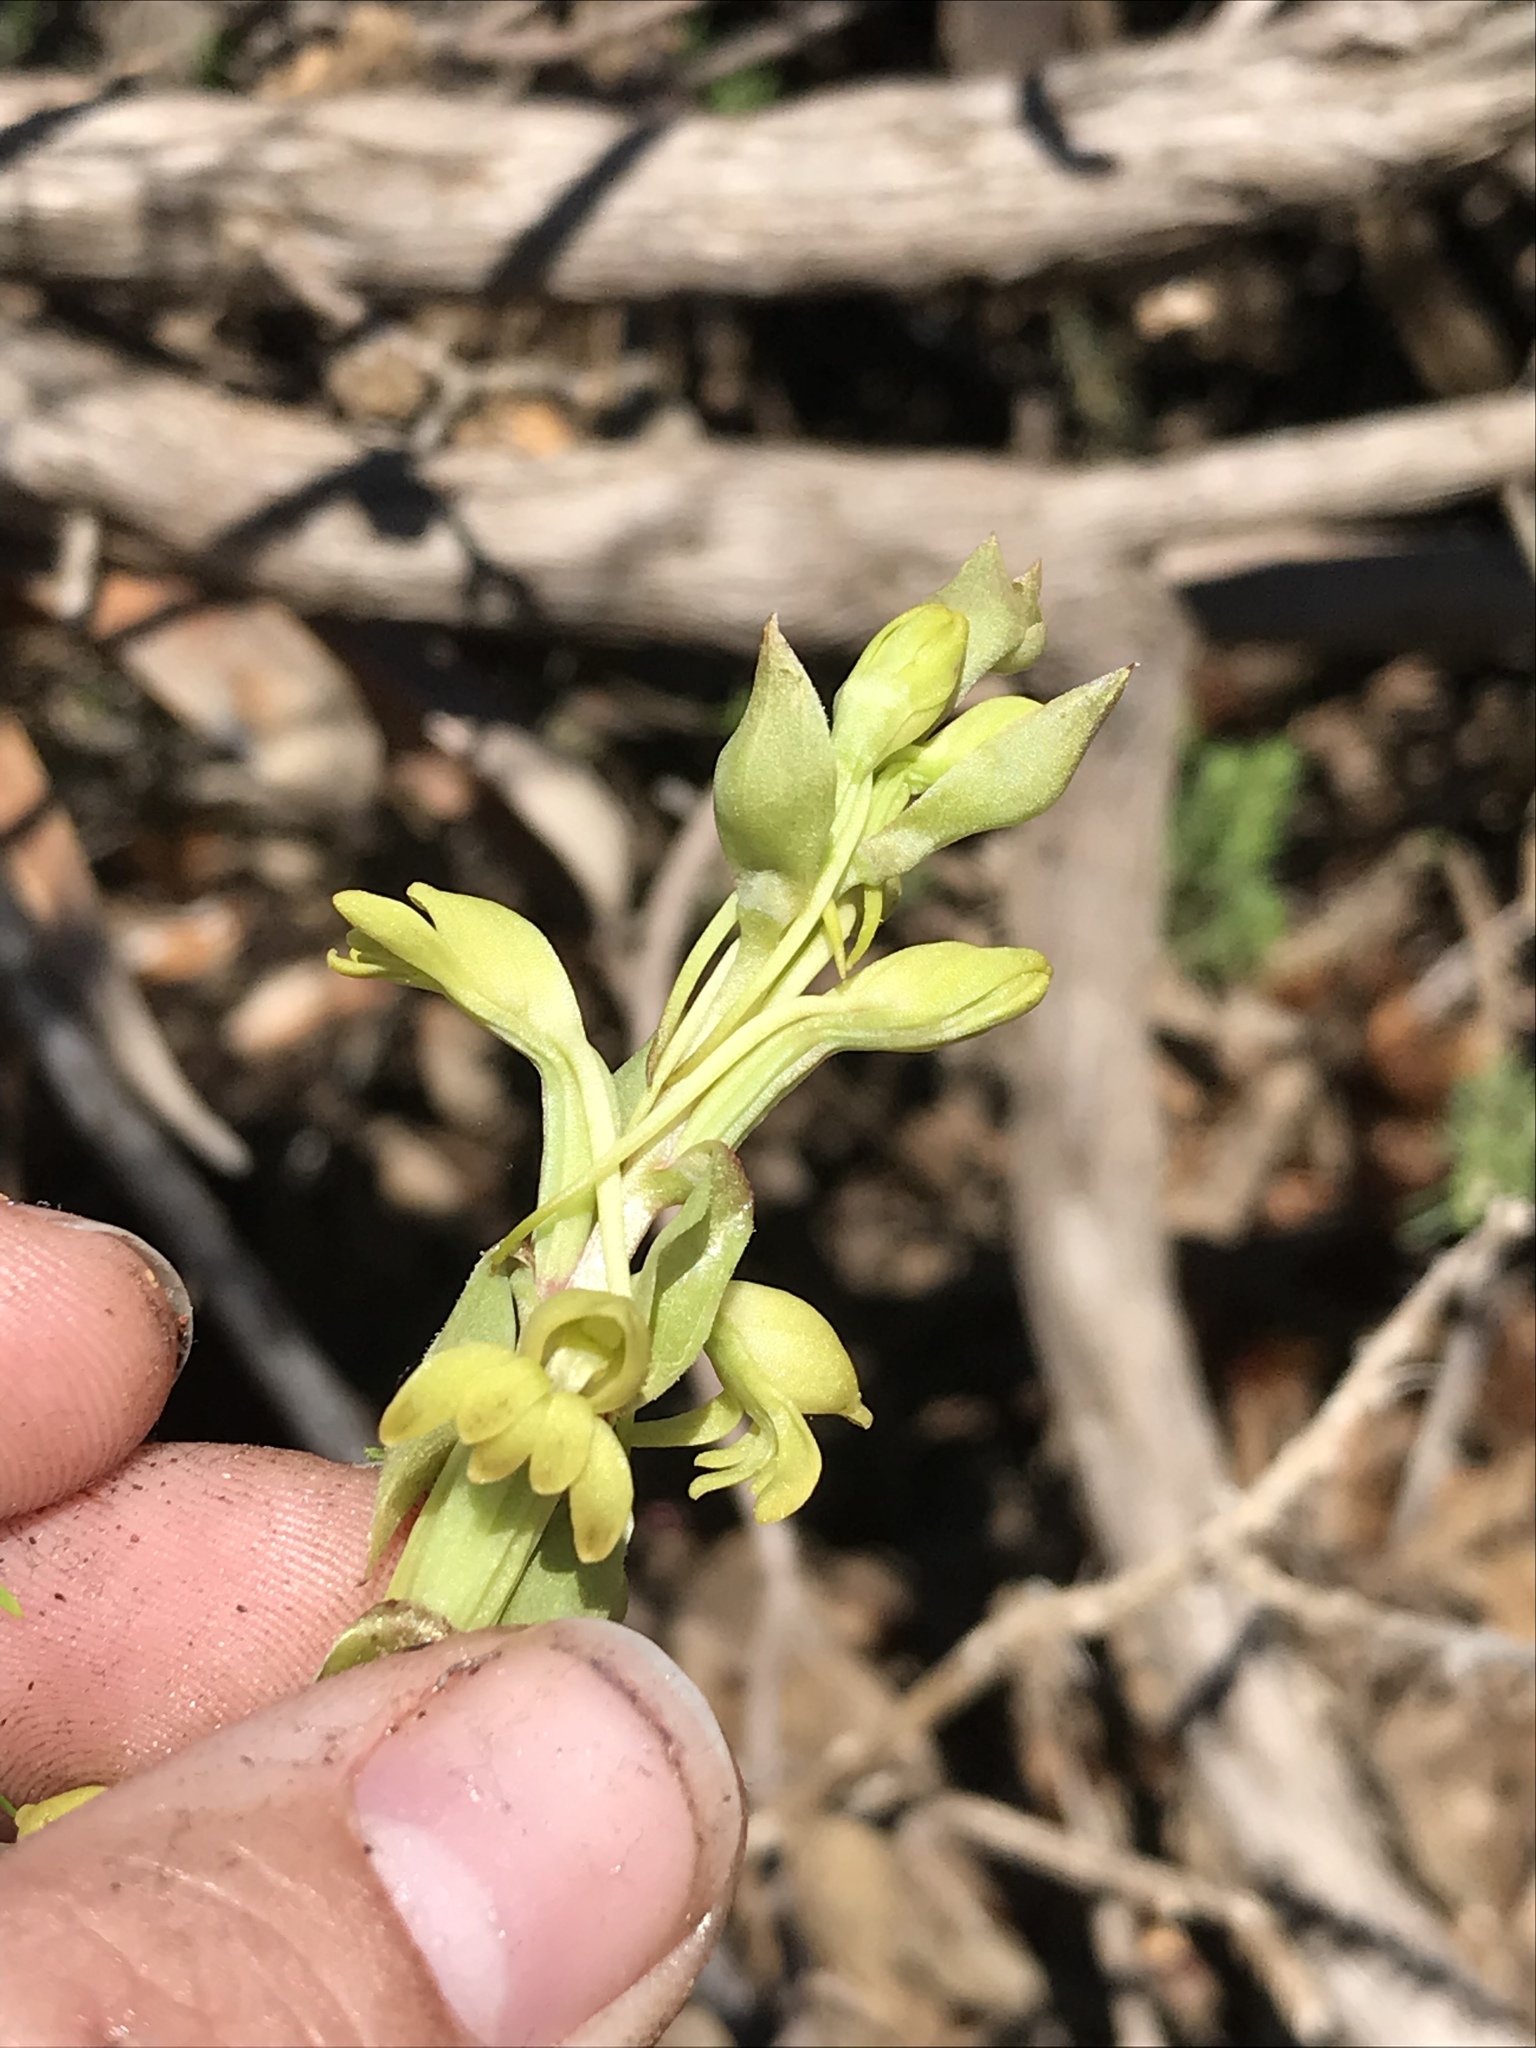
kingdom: Plantae
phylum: Tracheophyta
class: Liliopsida
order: Asparagales
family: Orchidaceae
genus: Satyrium
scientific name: Satyrium bicorne
